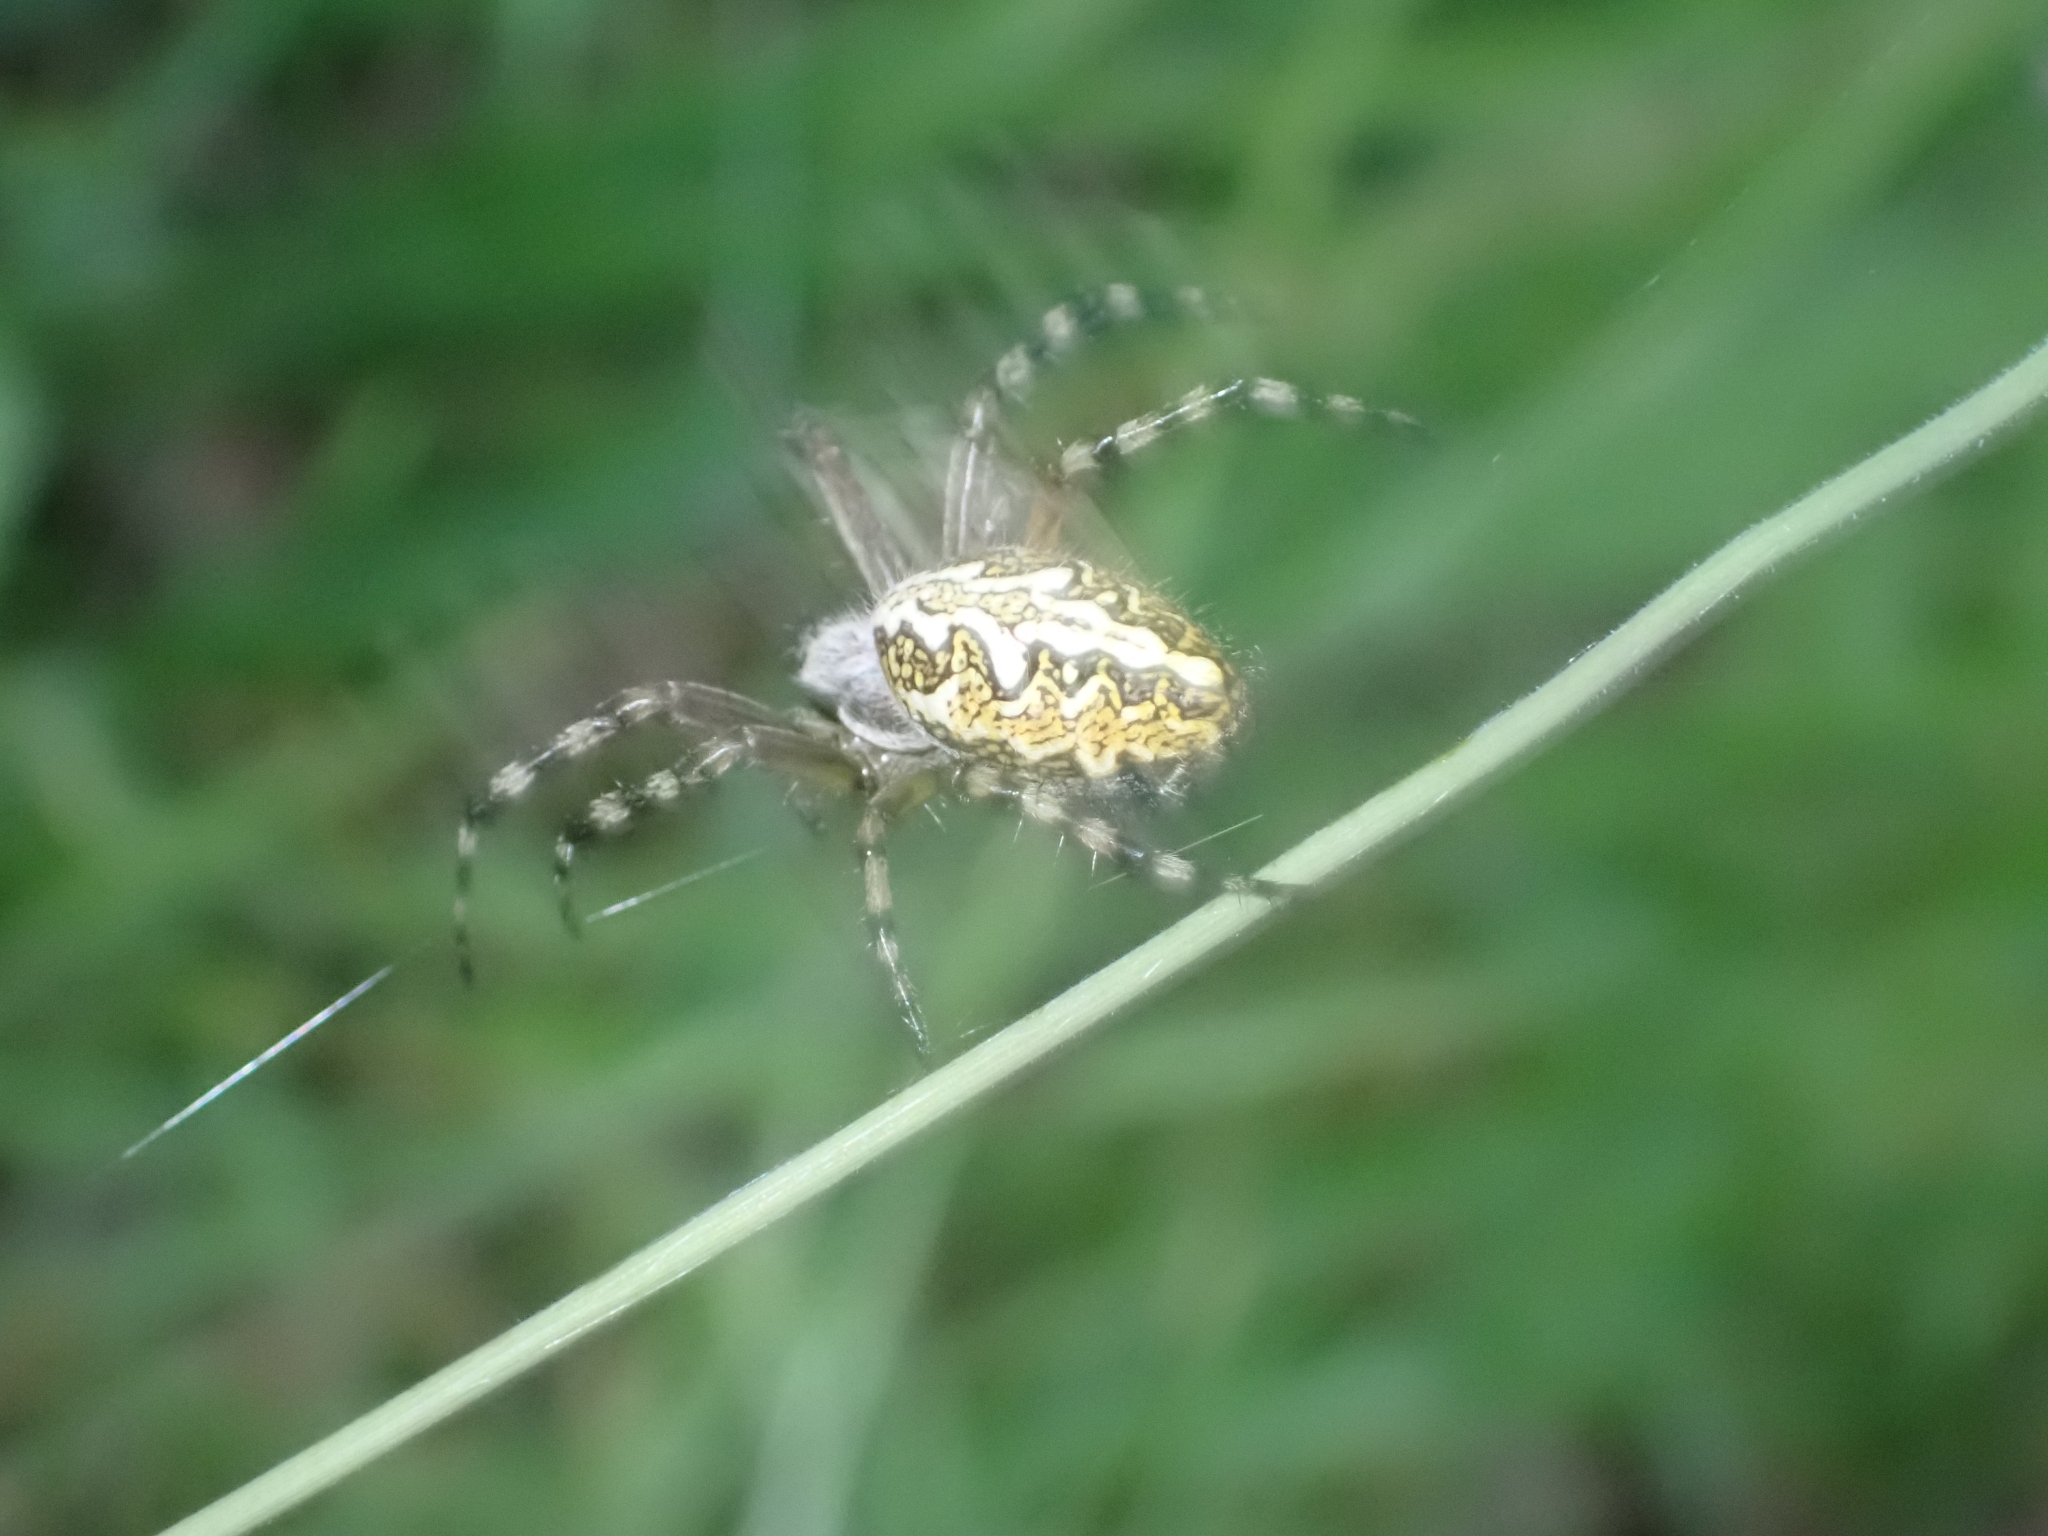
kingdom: Animalia
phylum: Arthropoda
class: Arachnida
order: Araneae
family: Araneidae
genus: Aculepeira
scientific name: Aculepeira ceropegia
